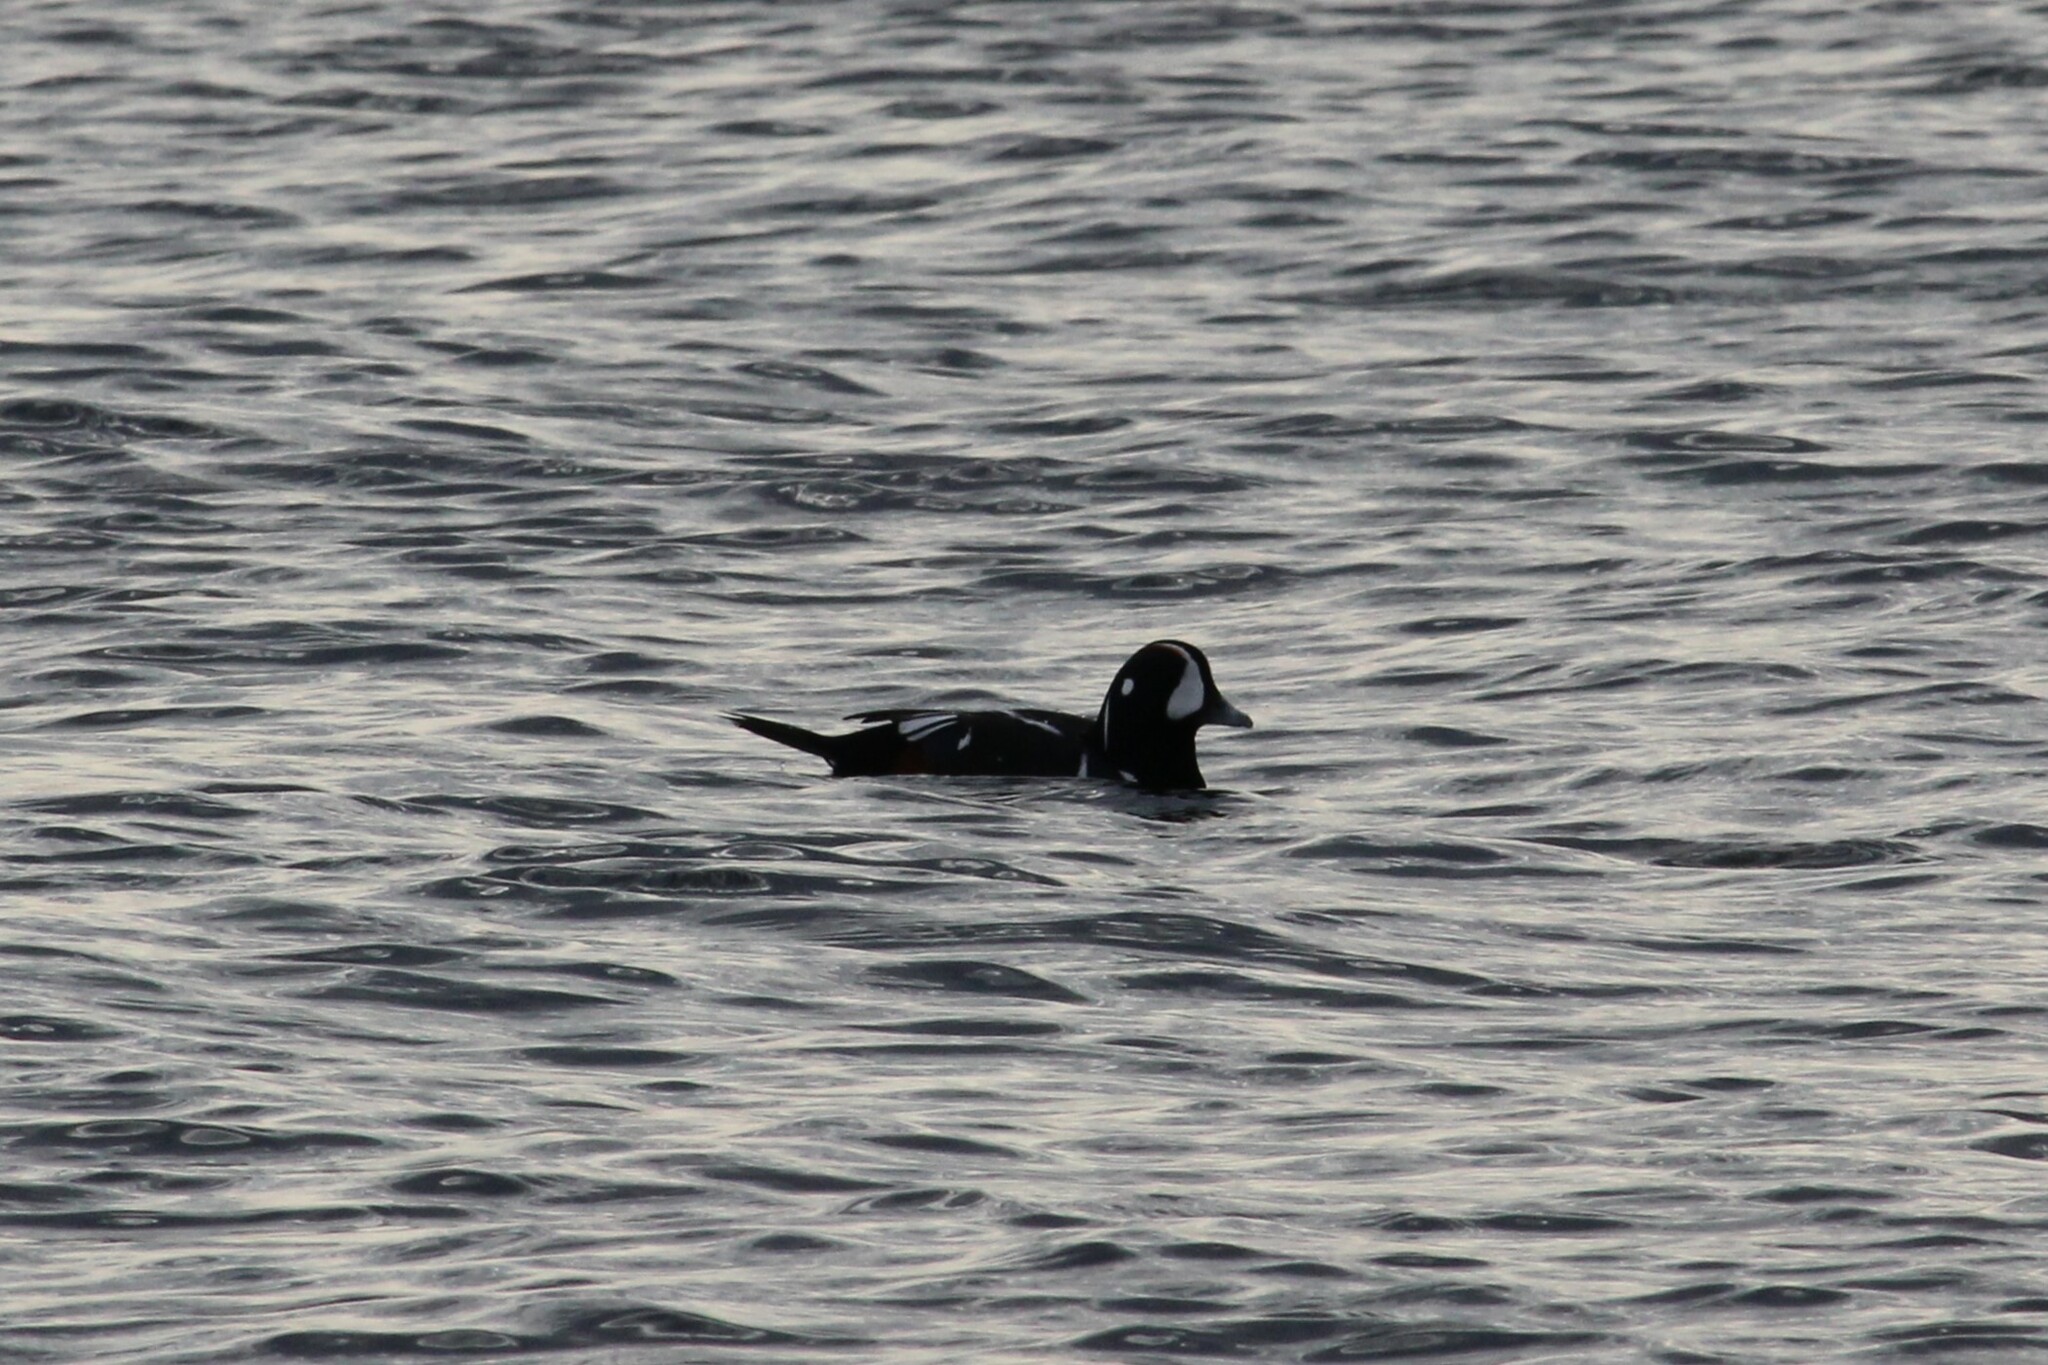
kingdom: Animalia
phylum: Chordata
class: Aves
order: Anseriformes
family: Anatidae
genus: Histrionicus
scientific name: Histrionicus histrionicus
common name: Harlequin duck
